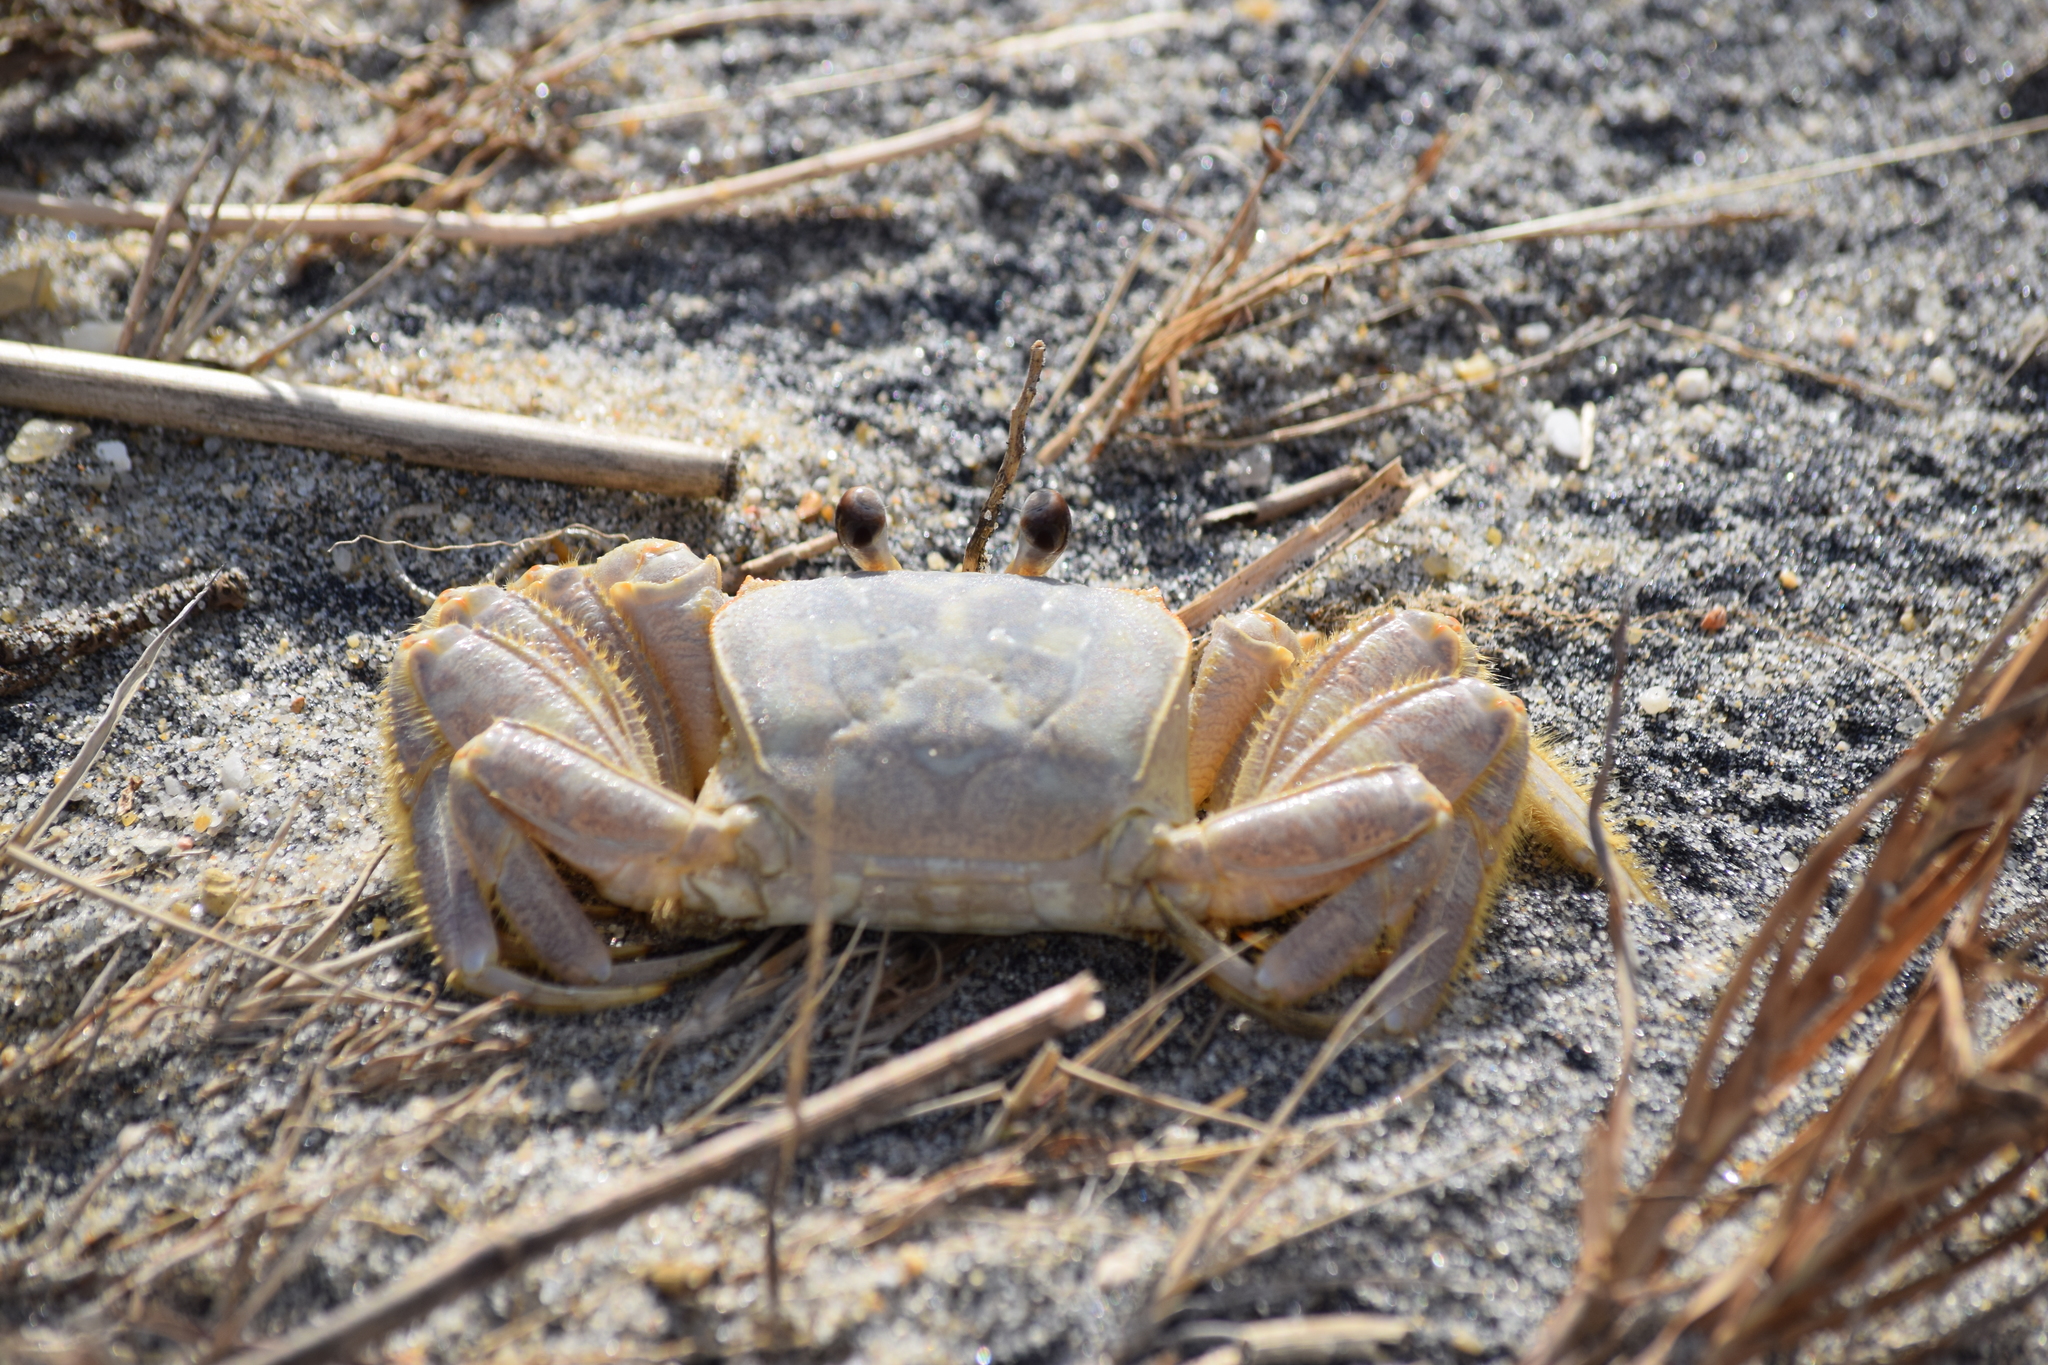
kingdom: Animalia
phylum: Arthropoda
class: Malacostraca
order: Decapoda
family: Ocypodidae
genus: Ocypode
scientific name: Ocypode quadrata
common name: Ghost crab
